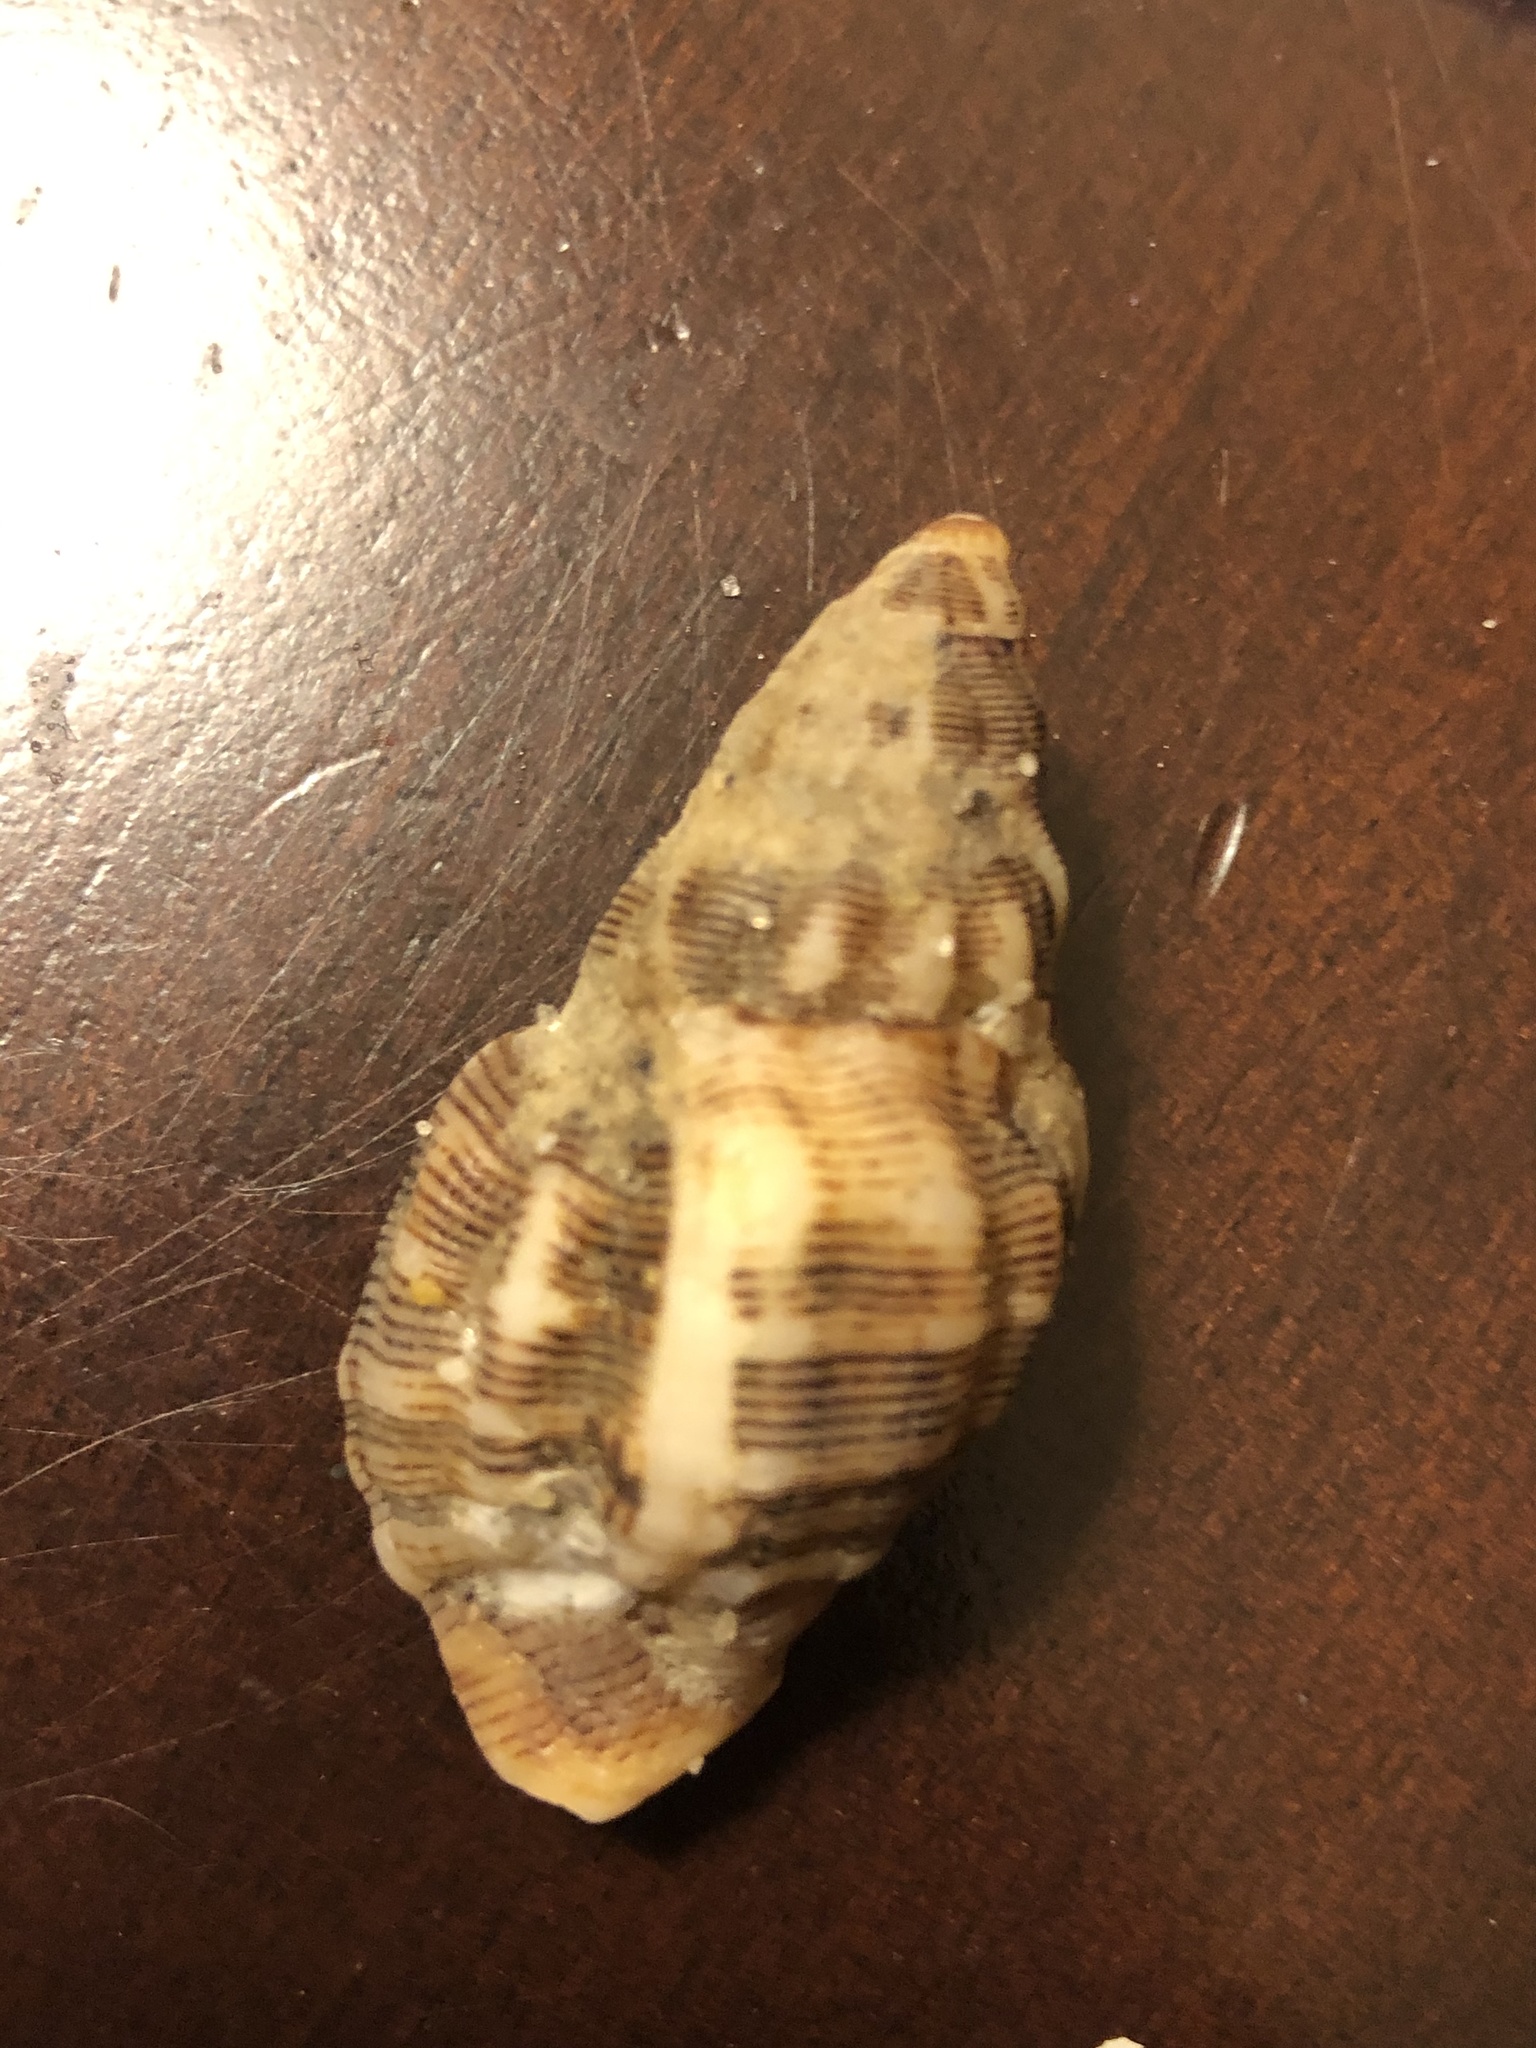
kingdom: Animalia
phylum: Mollusca
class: Gastropoda
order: Neogastropoda
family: Muricidae
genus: Roperia
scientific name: Roperia poulsoni
